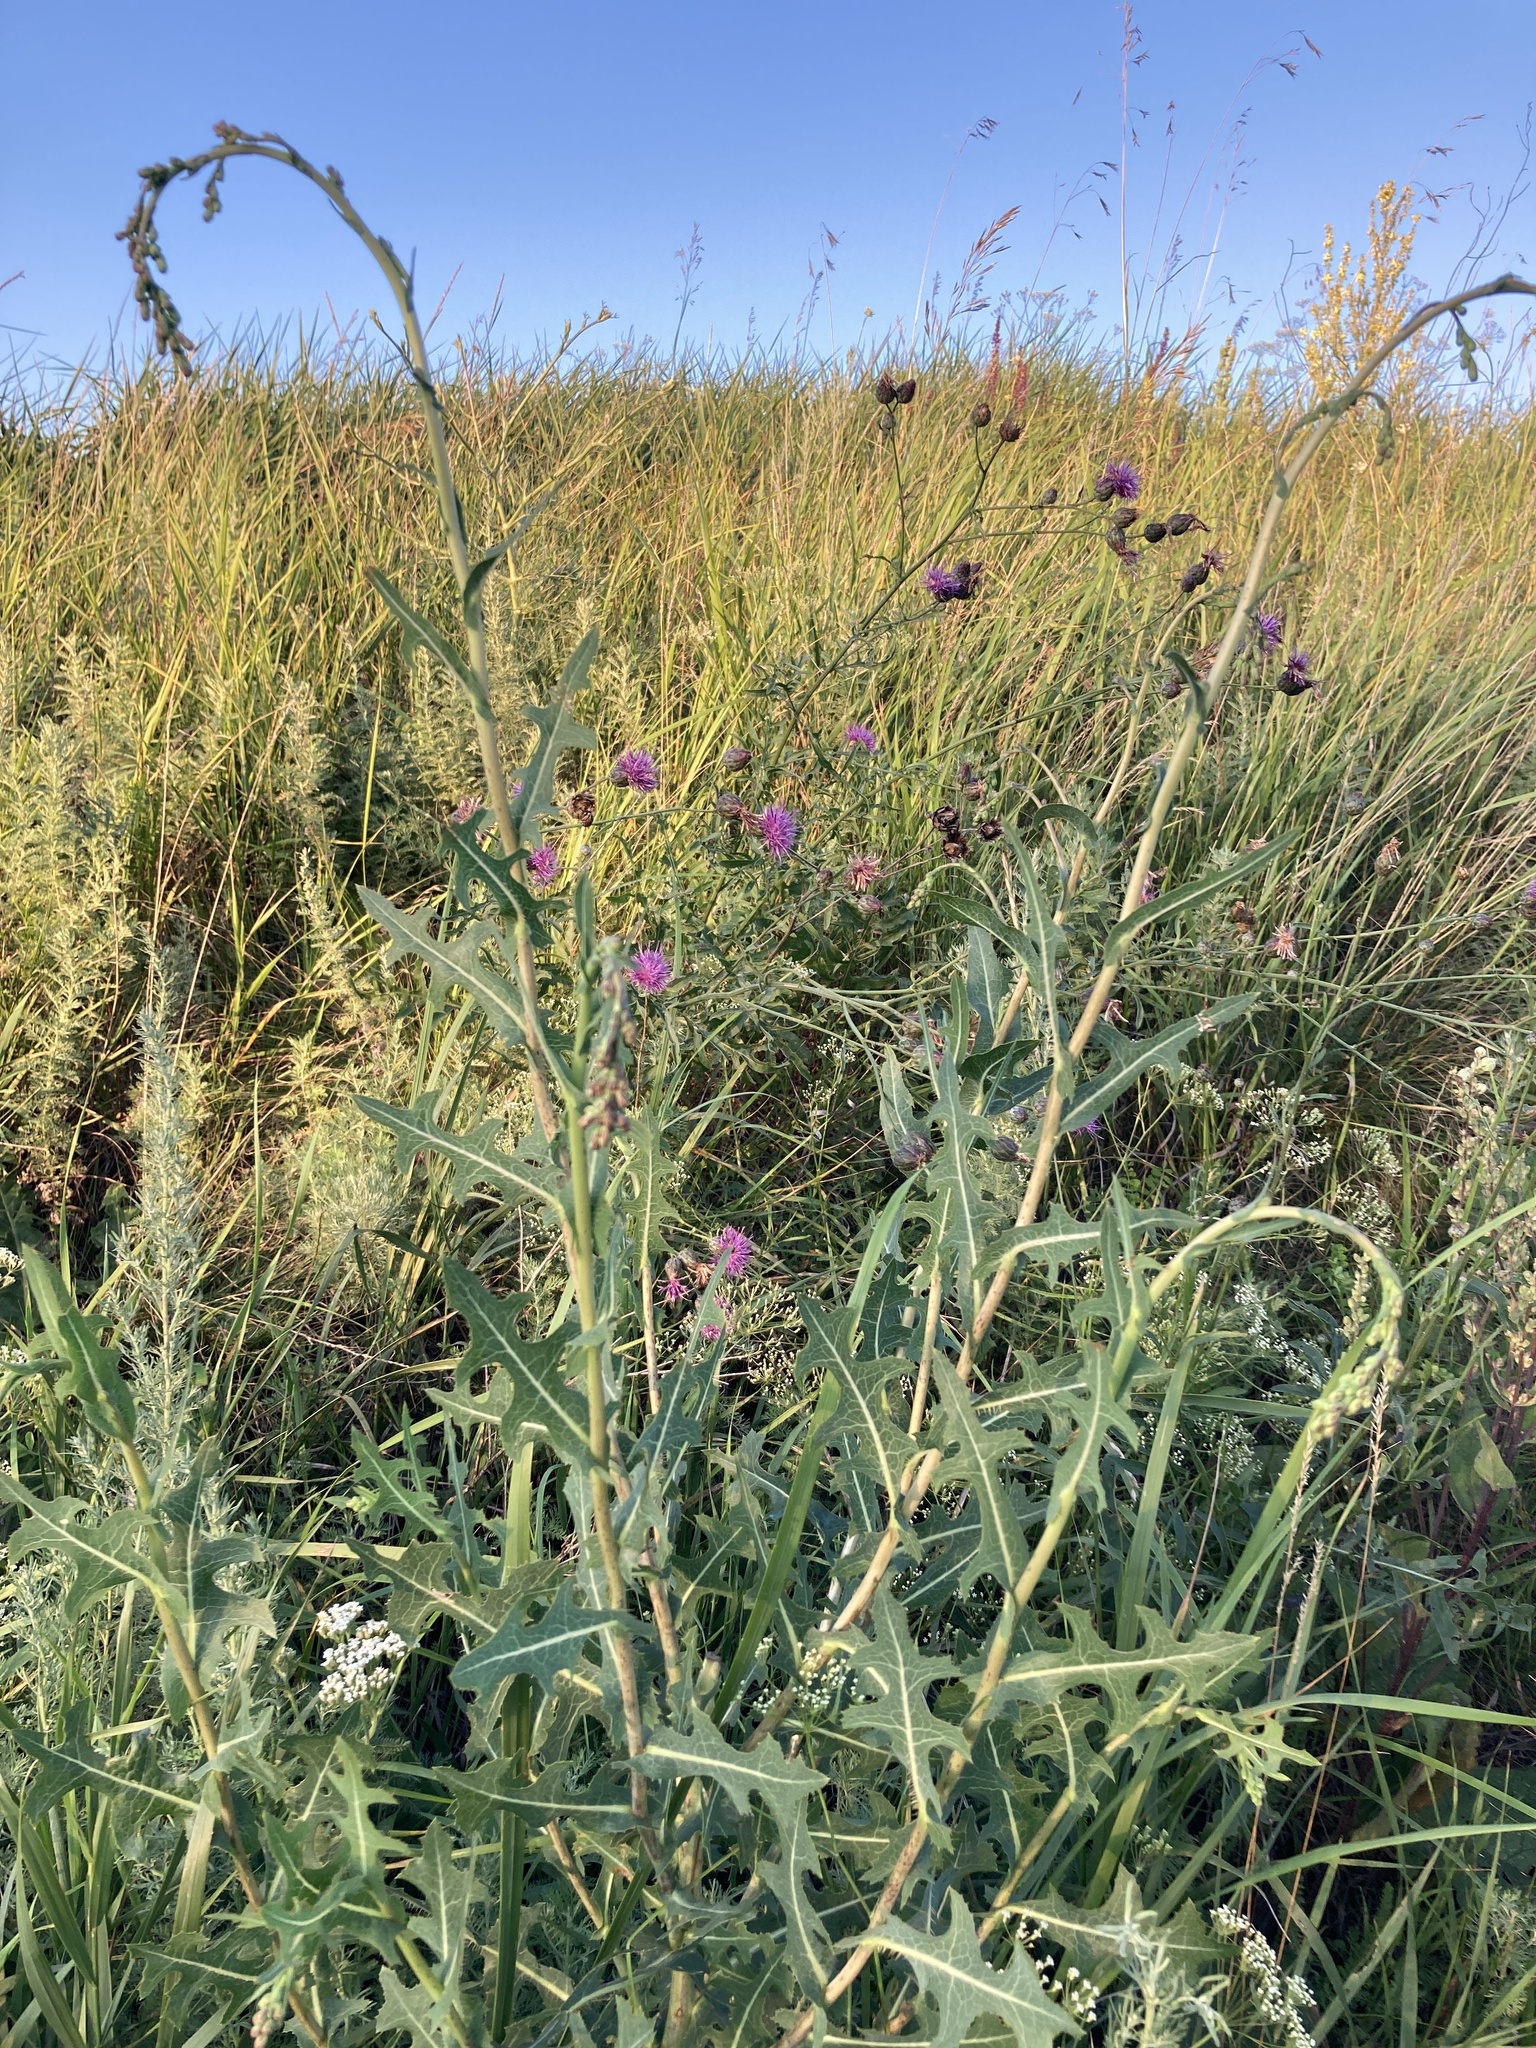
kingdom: Plantae
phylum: Tracheophyta
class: Magnoliopsida
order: Asterales
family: Asteraceae
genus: Lactuca
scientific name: Lactuca serriola
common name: Prickly lettuce
